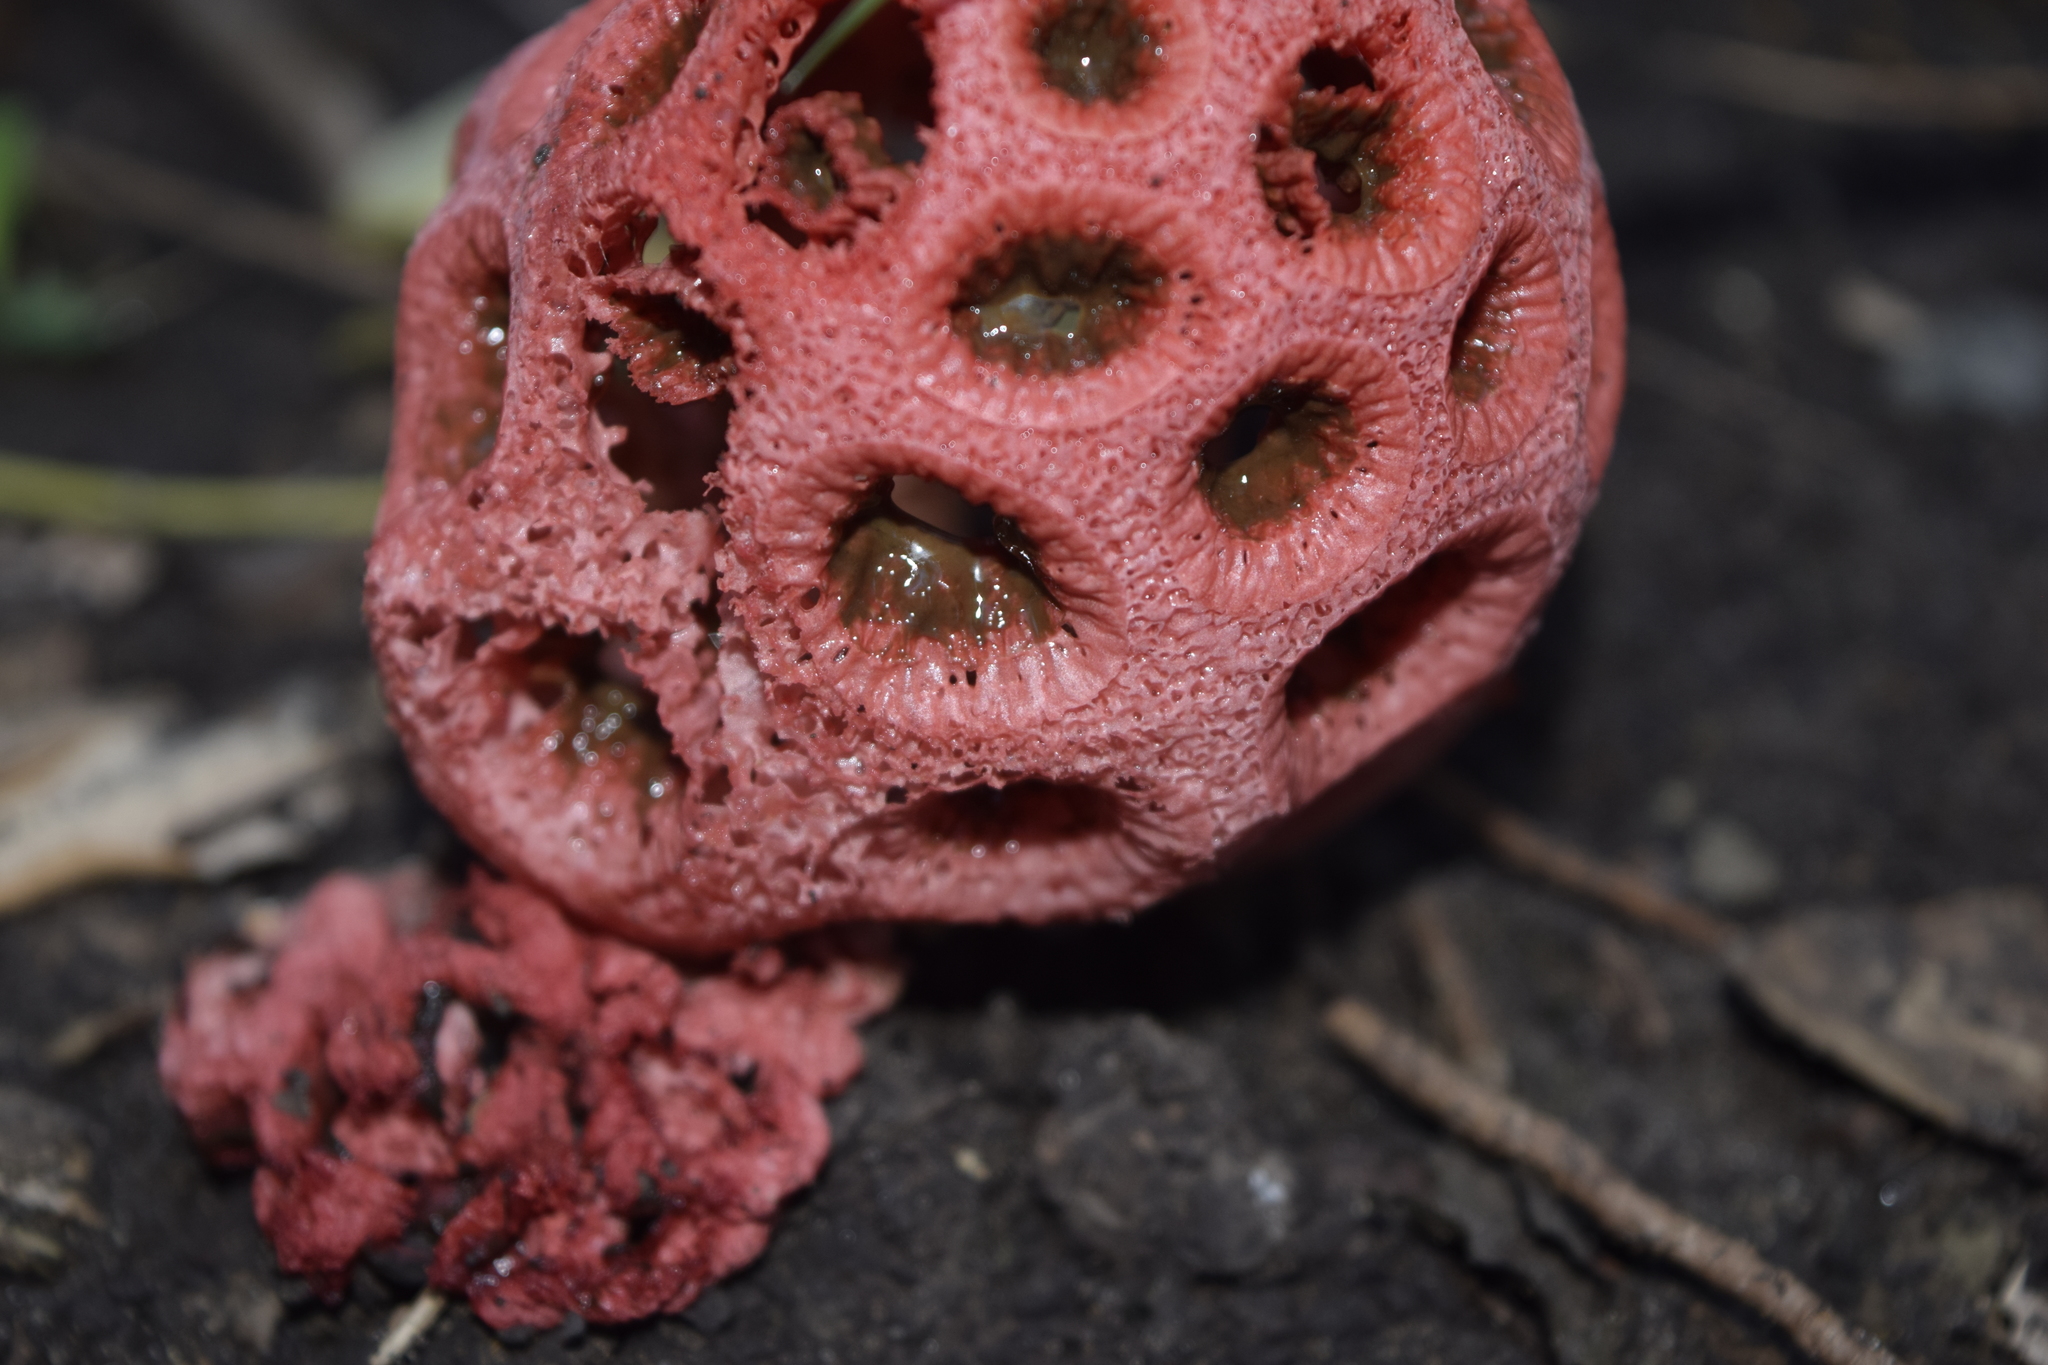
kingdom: Fungi
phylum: Basidiomycota
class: Agaricomycetes
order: Phallales
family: Phallaceae
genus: Clathrus
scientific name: Clathrus crispatus
